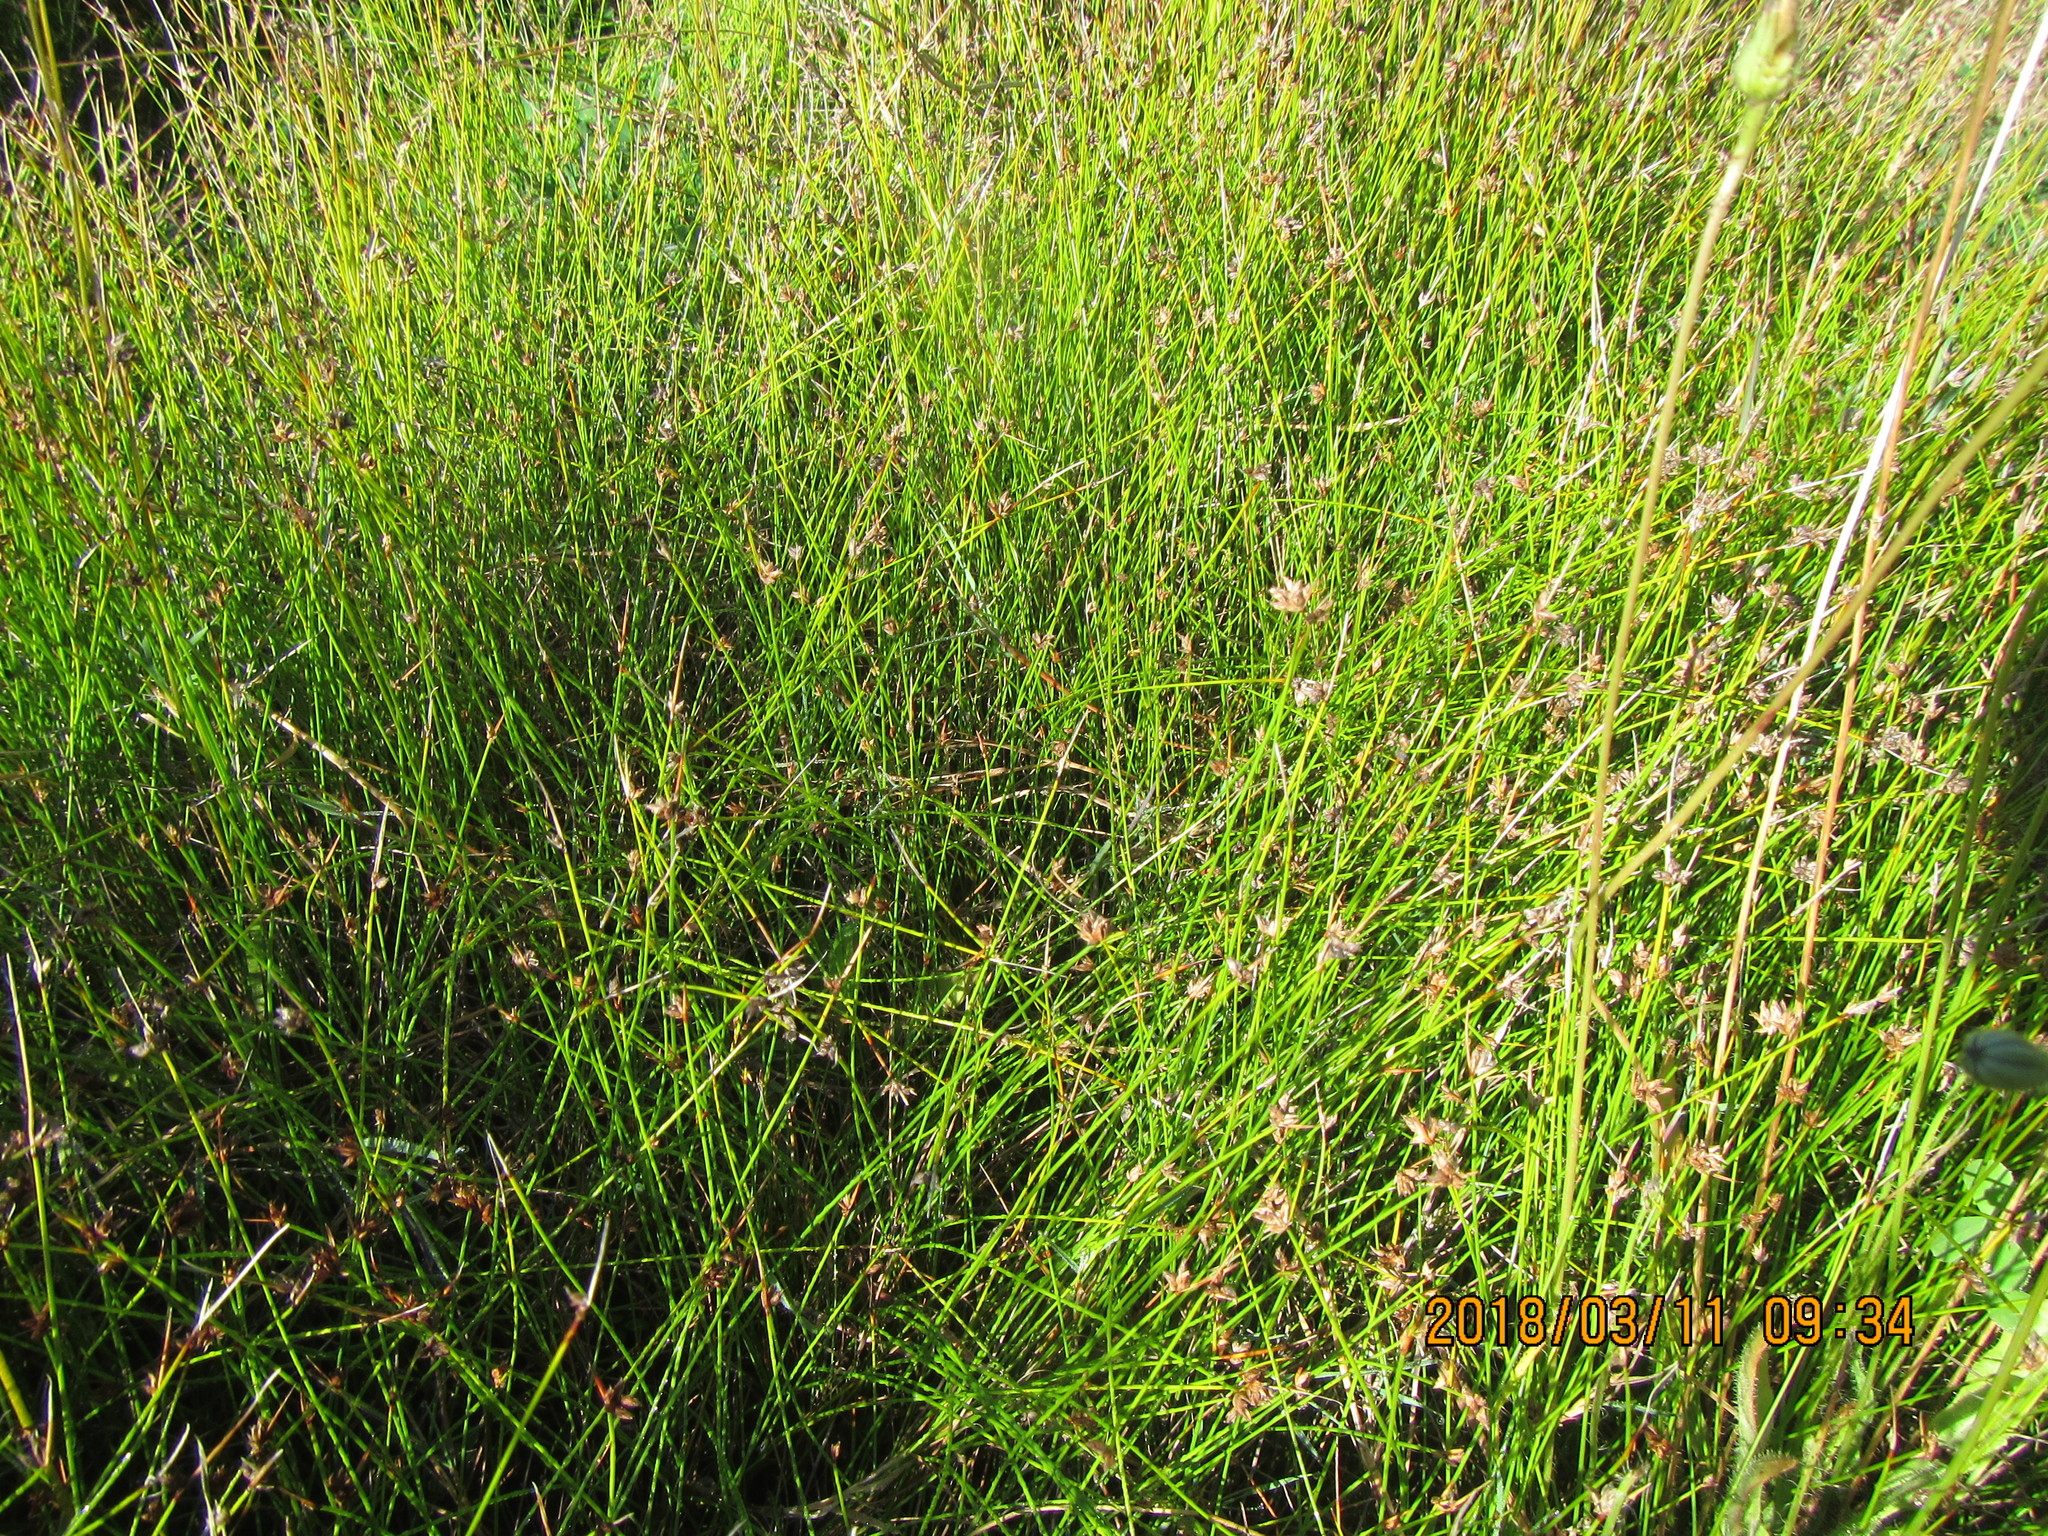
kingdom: Plantae
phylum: Tracheophyta
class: Liliopsida
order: Poales
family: Cyperaceae
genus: Schoenus
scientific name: Schoenus nitens
